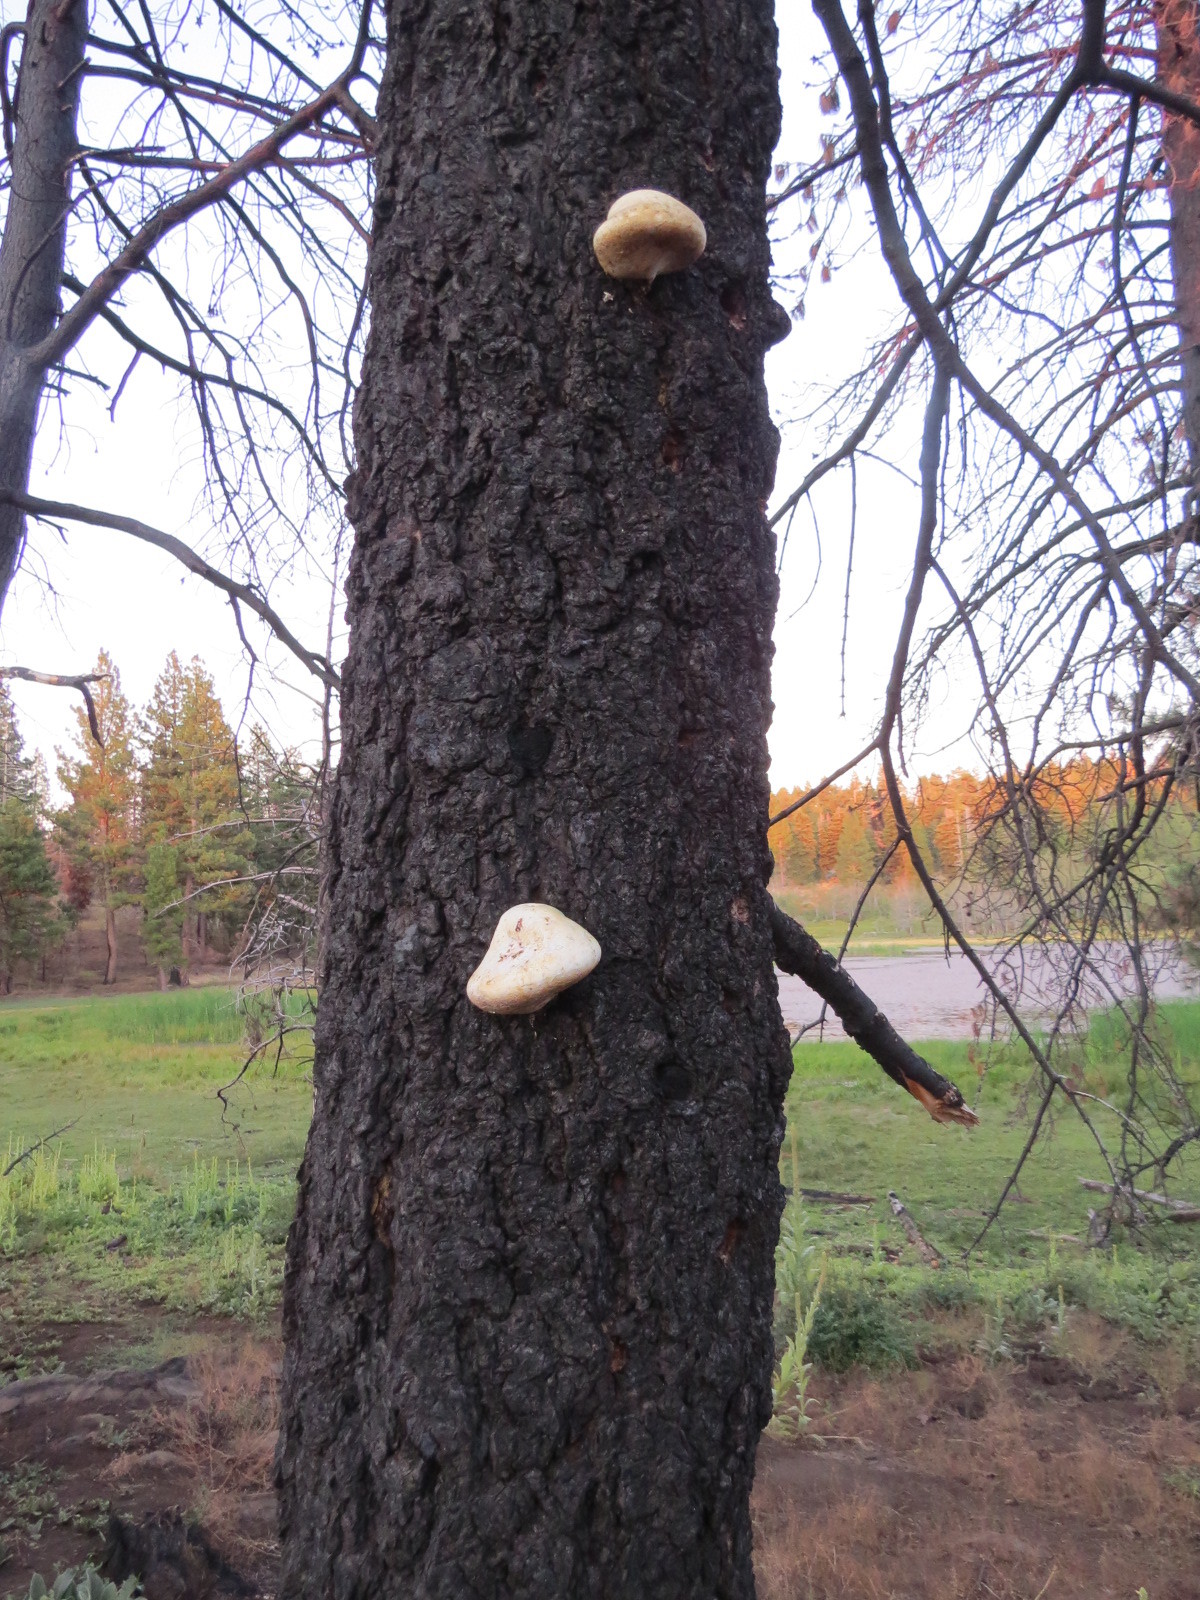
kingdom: Fungi
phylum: Basidiomycota
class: Agaricomycetes
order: Polyporales
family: Polyporaceae
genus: Cryptoporus
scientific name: Cryptoporus volvatus
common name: Veiled polypore
